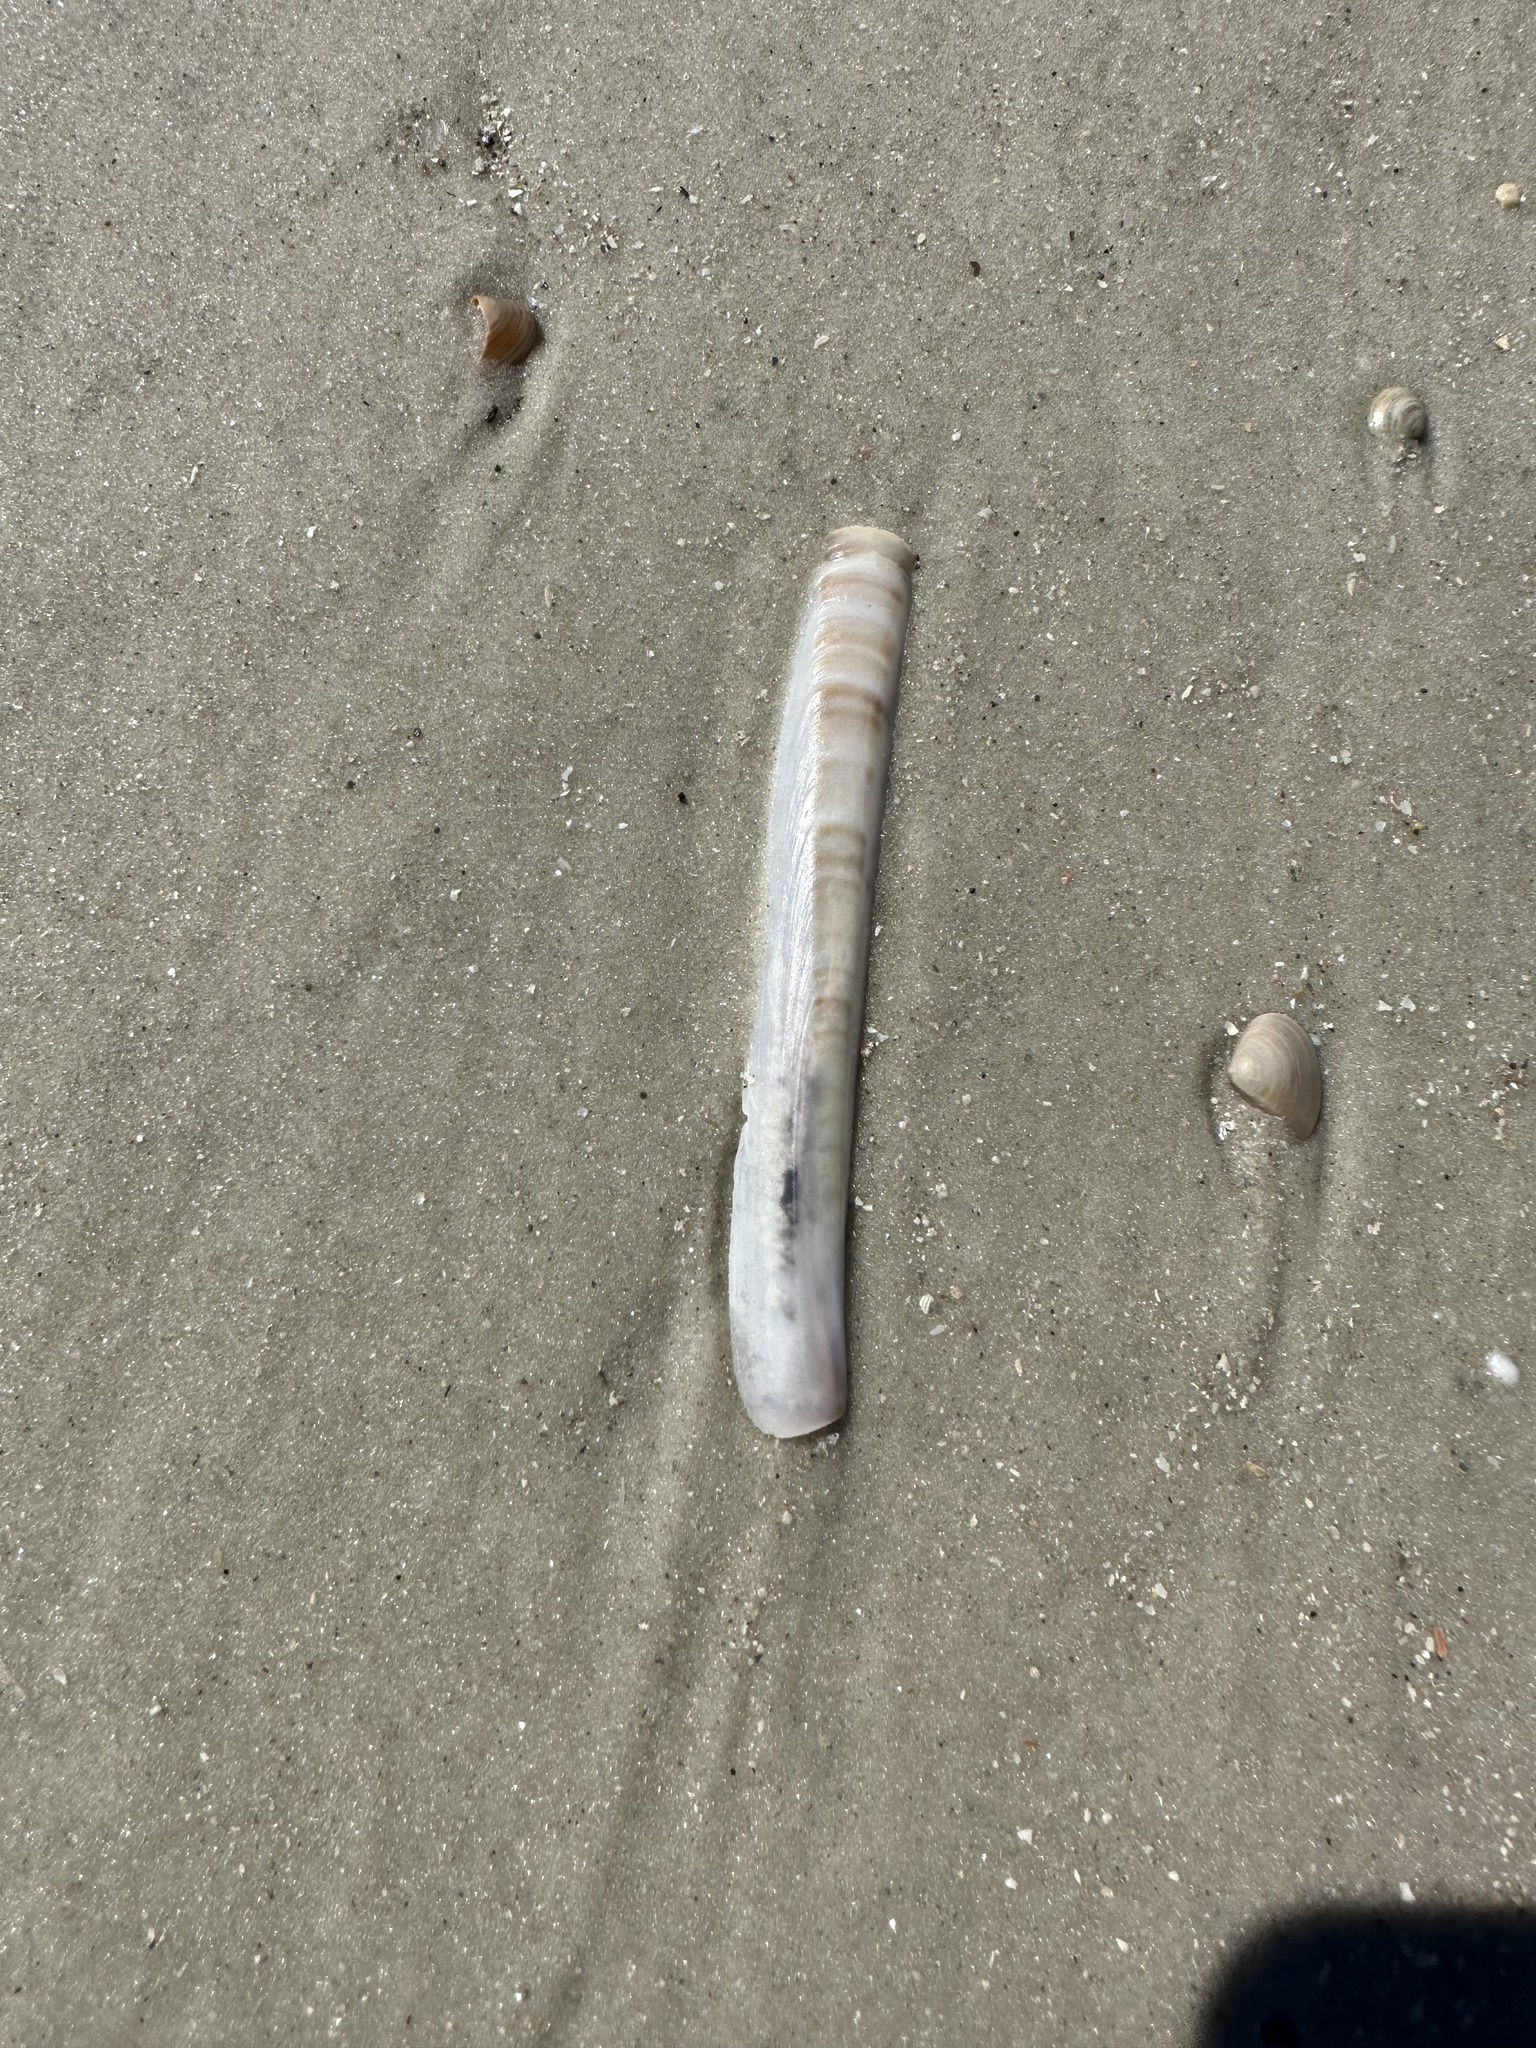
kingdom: Animalia
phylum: Mollusca
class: Bivalvia
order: Adapedonta
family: Pharidae
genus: Ensis
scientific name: Ensis leei
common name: American jack knife clam
